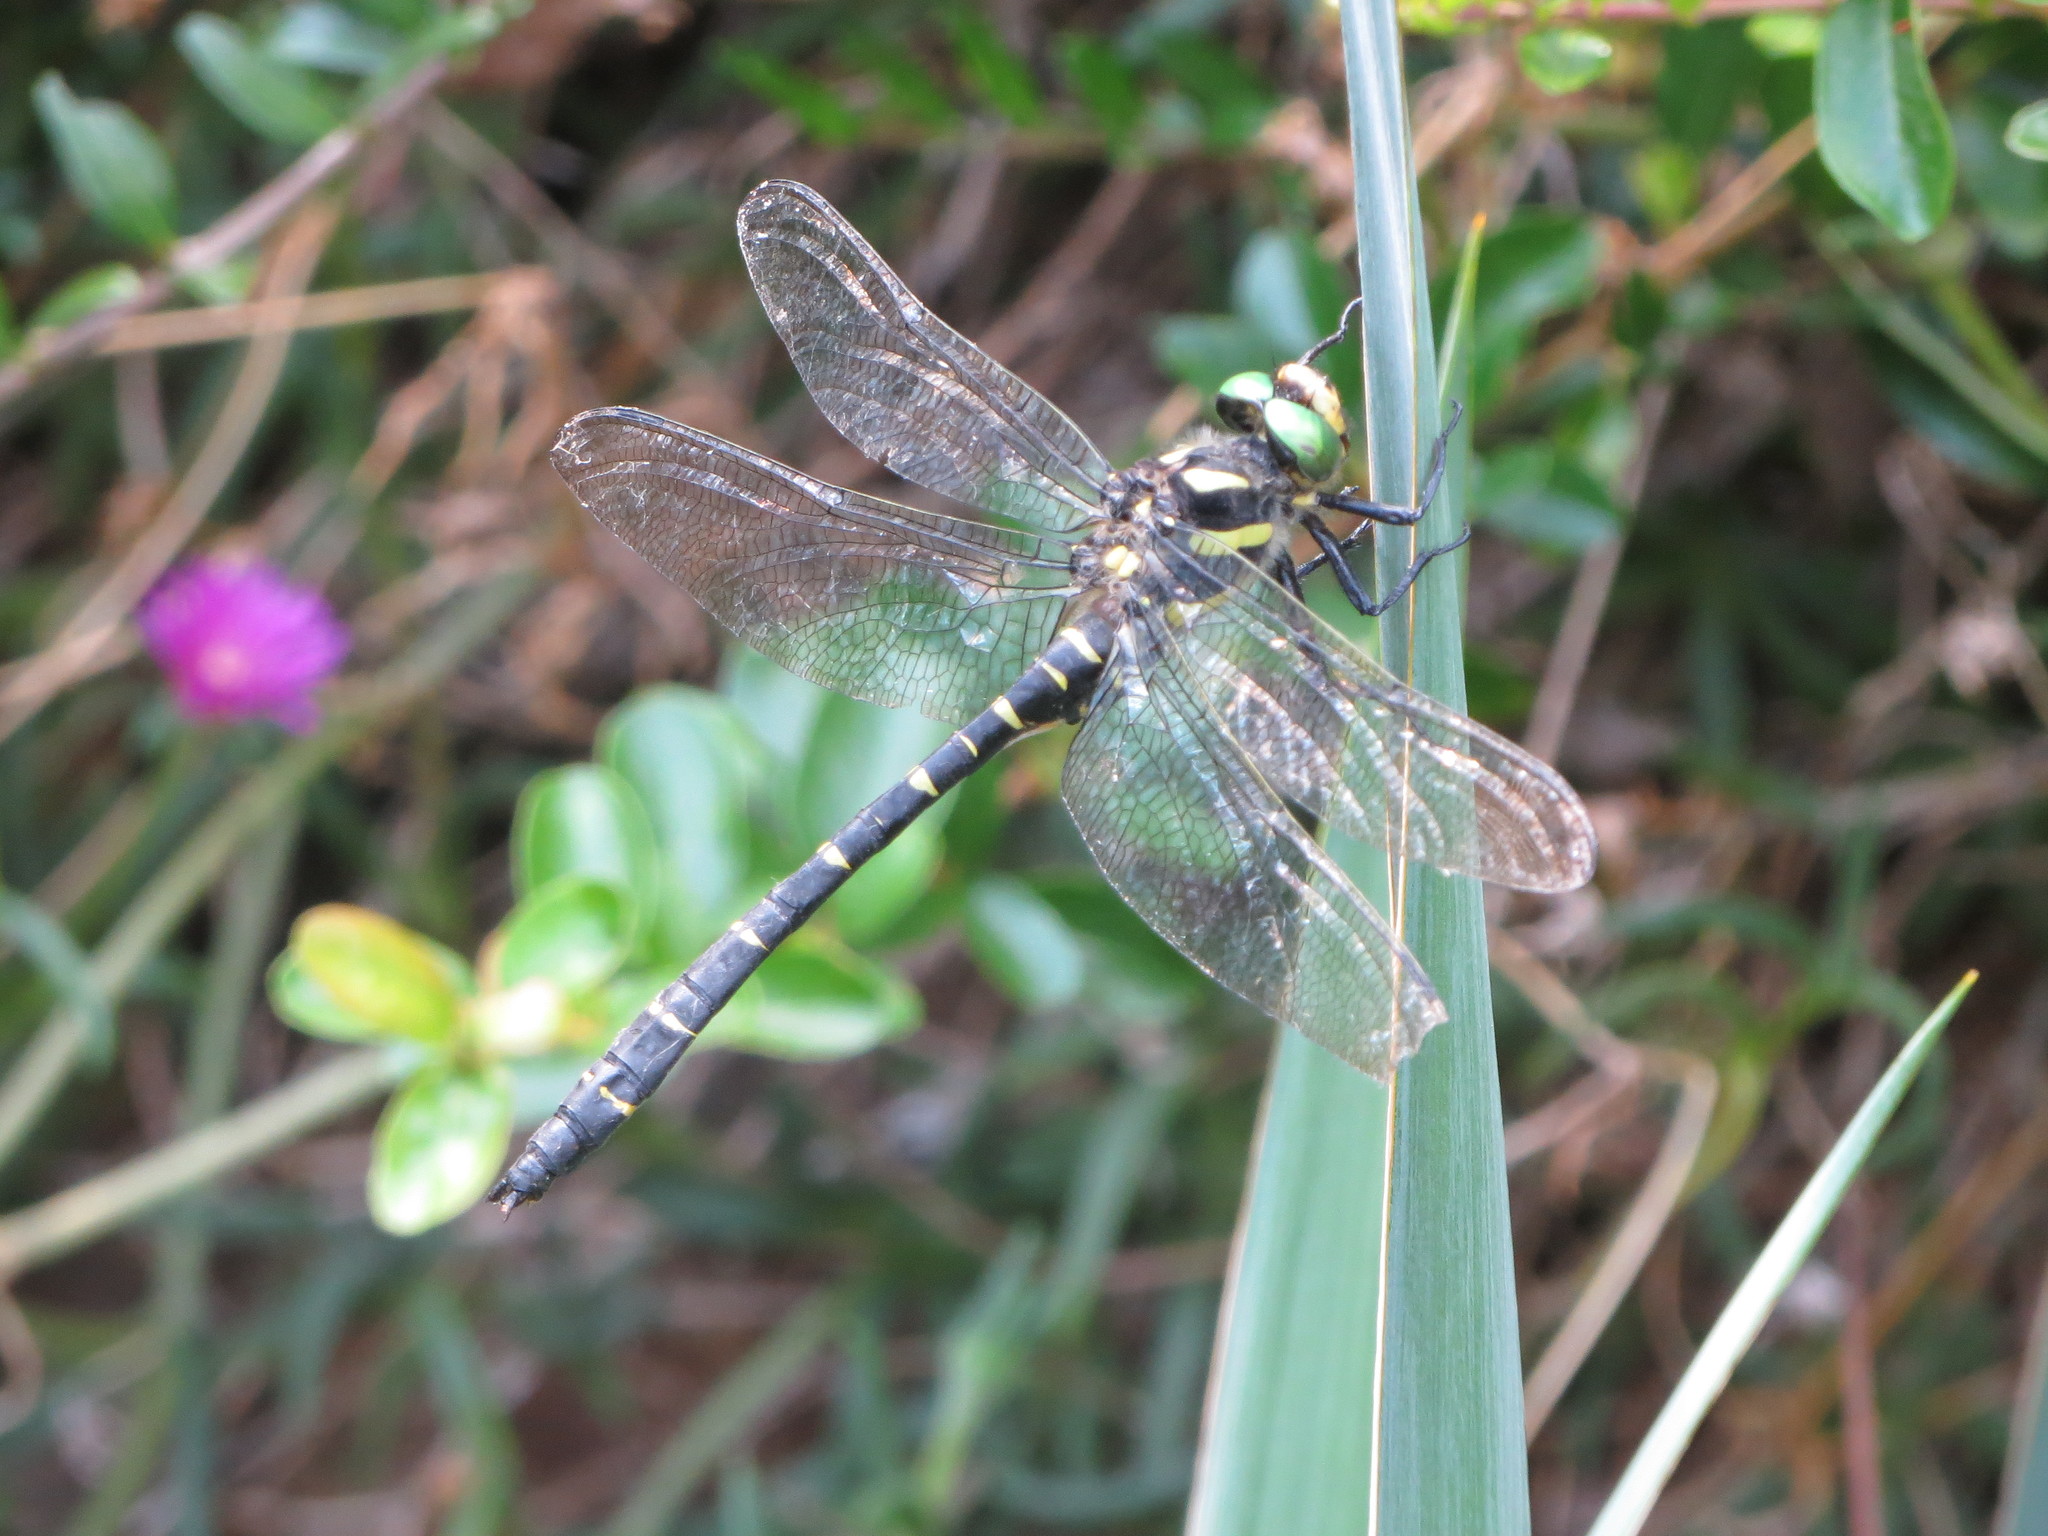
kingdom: Animalia
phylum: Arthropoda
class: Insecta
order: Odonata
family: Cordulegastridae
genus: Cordulegaster
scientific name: Cordulegaster bidentata
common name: Sombre goldenring
